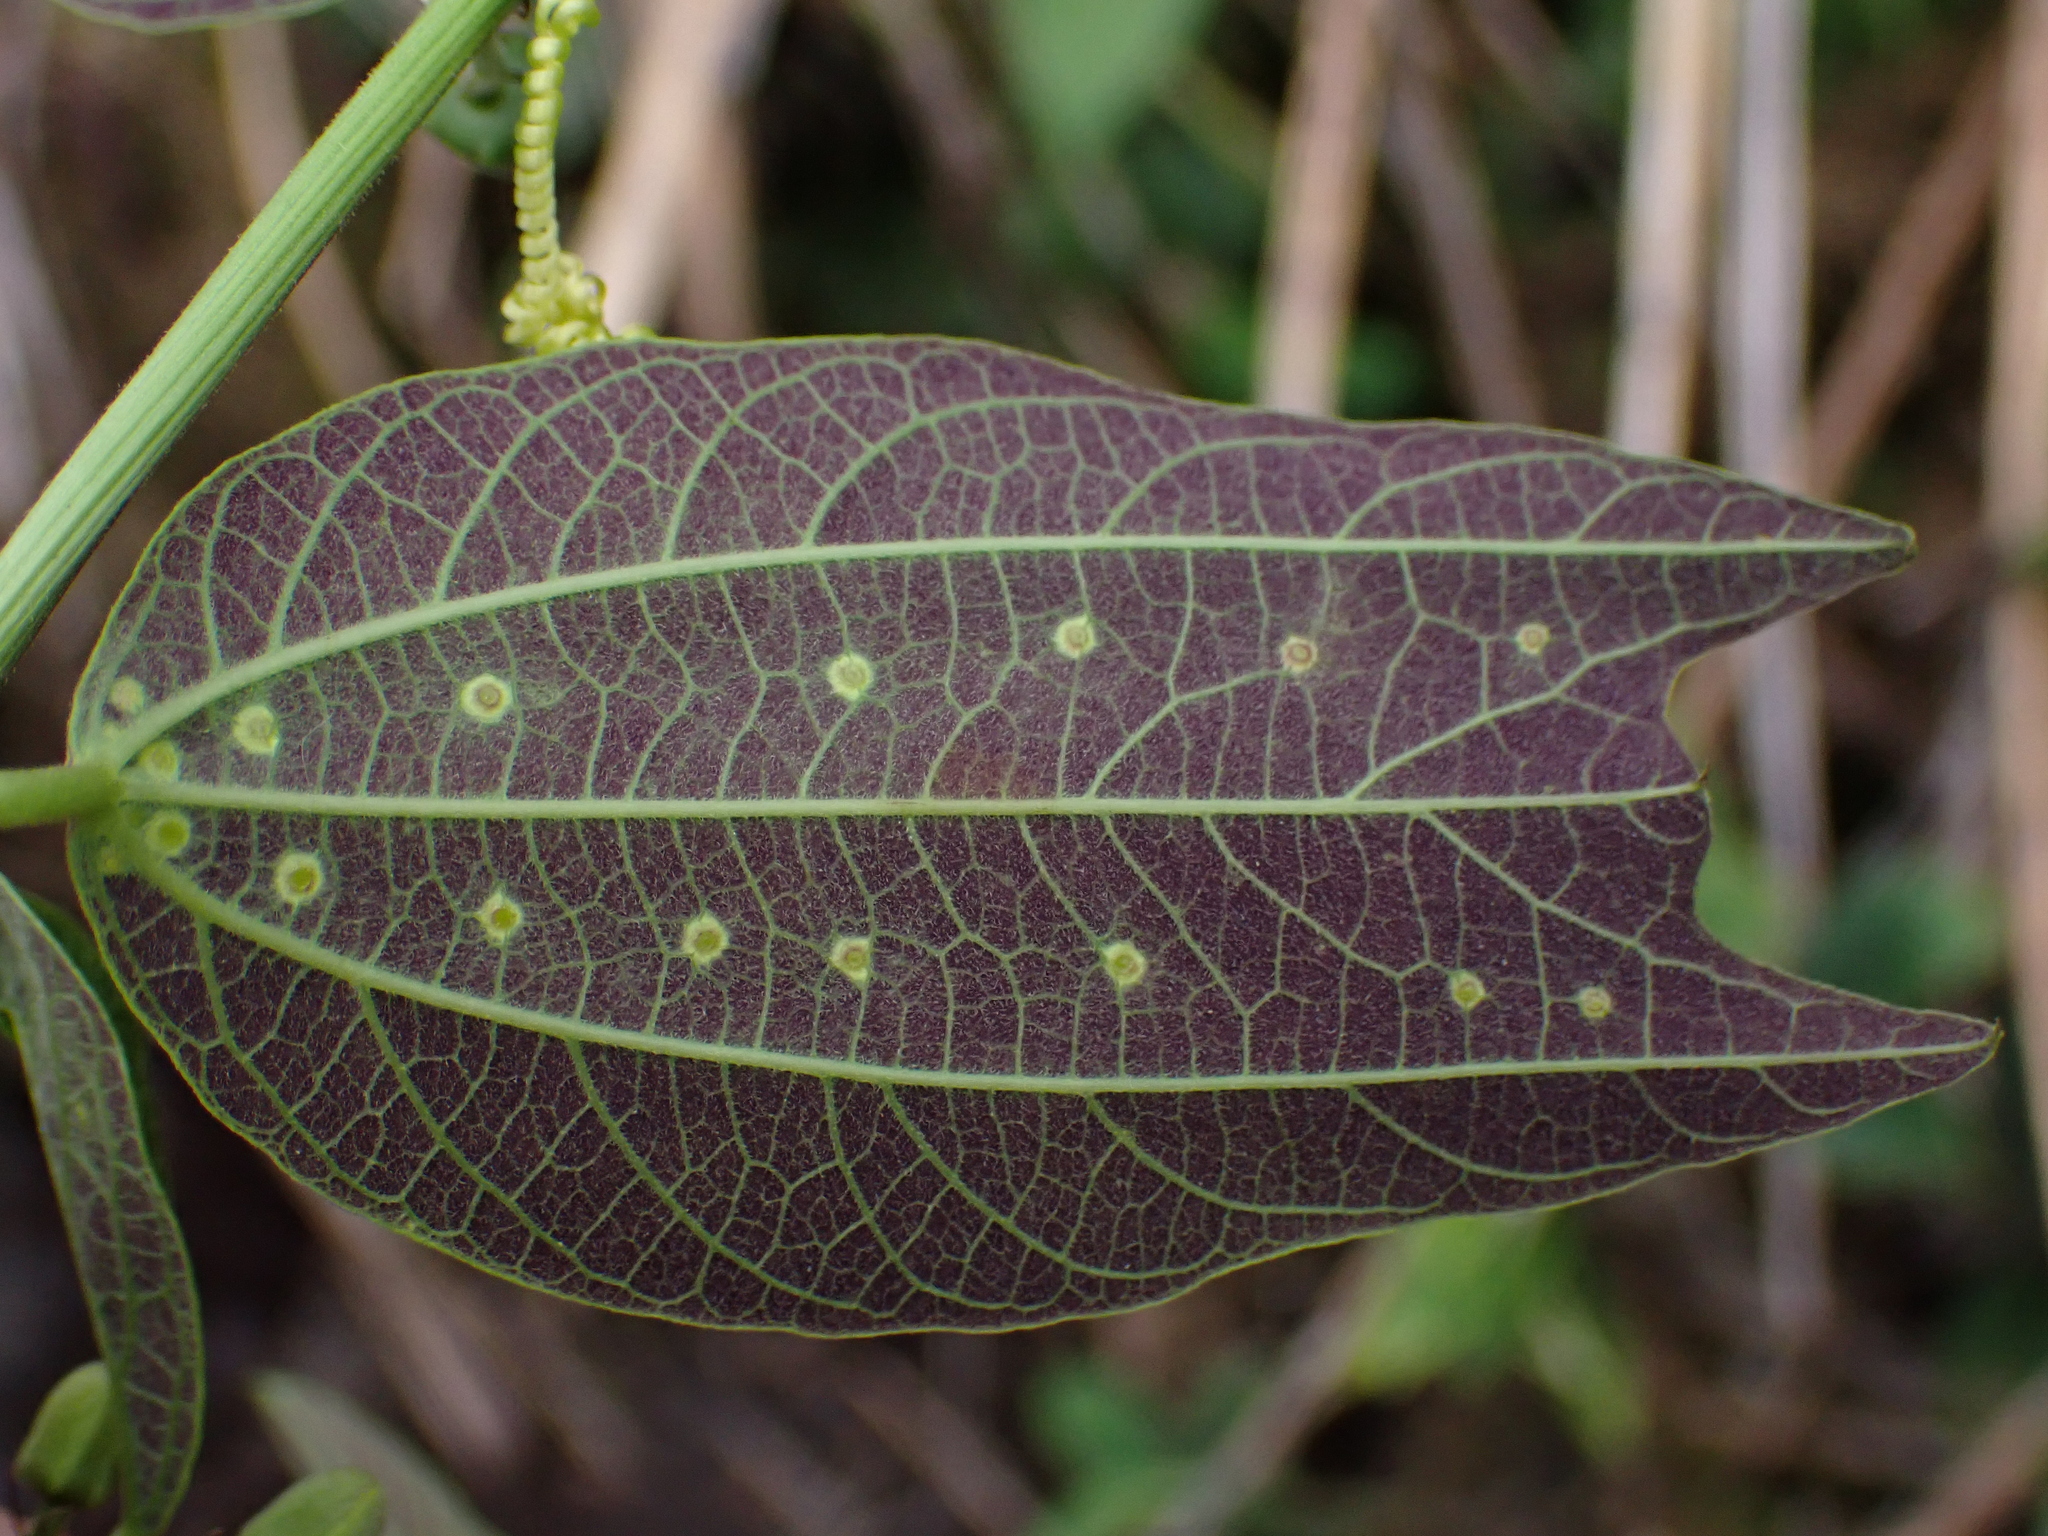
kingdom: Plantae
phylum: Tracheophyta
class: Magnoliopsida
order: Malpighiales
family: Passifloraceae
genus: Passiflora
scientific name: Passiflora chelidonea
